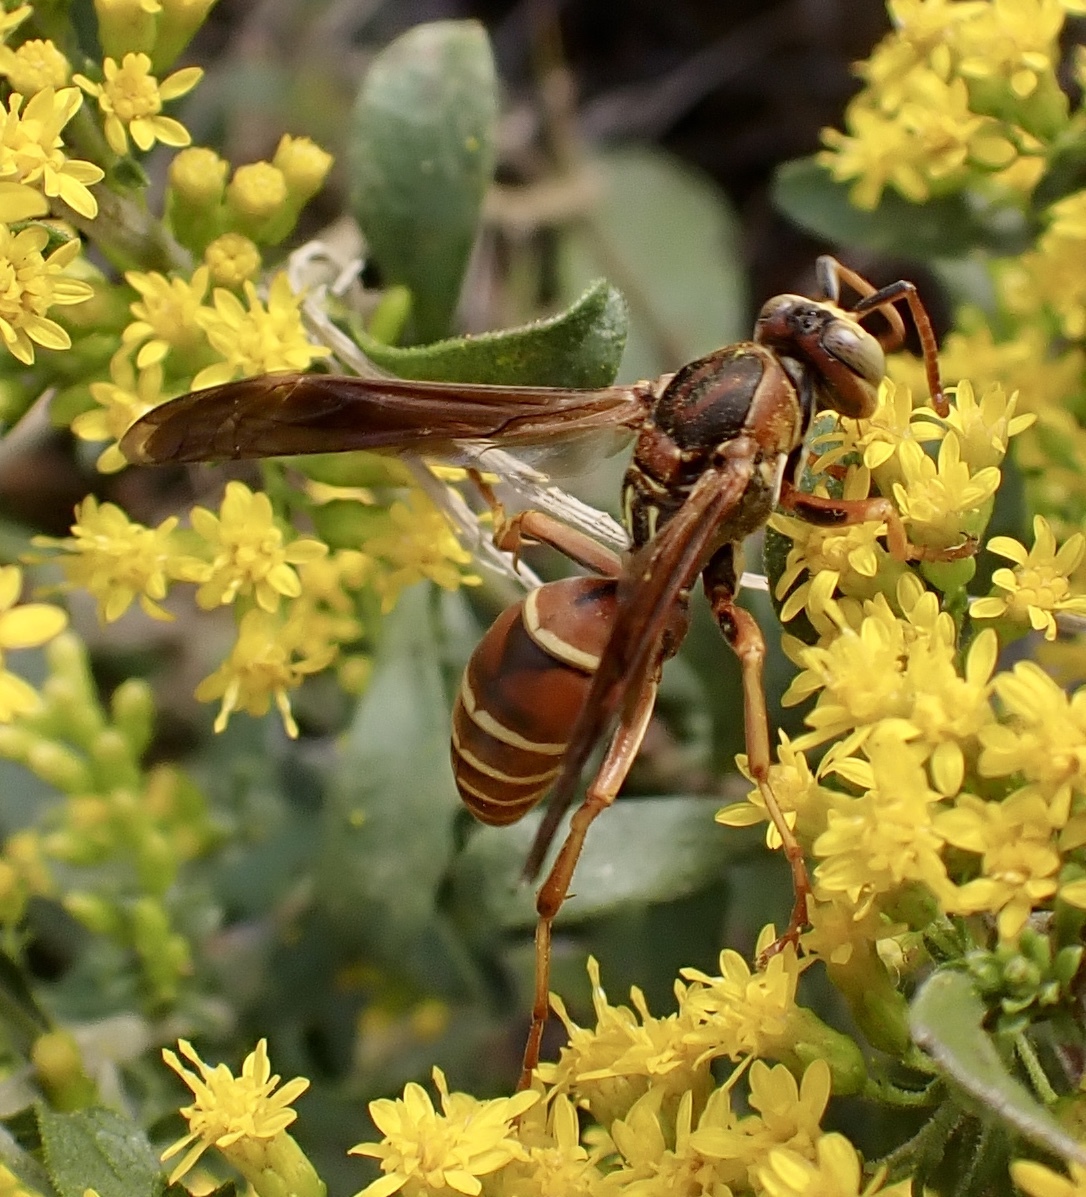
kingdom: Animalia
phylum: Arthropoda
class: Insecta
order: Hymenoptera
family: Eumenidae
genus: Polistes
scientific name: Polistes bellicosus
